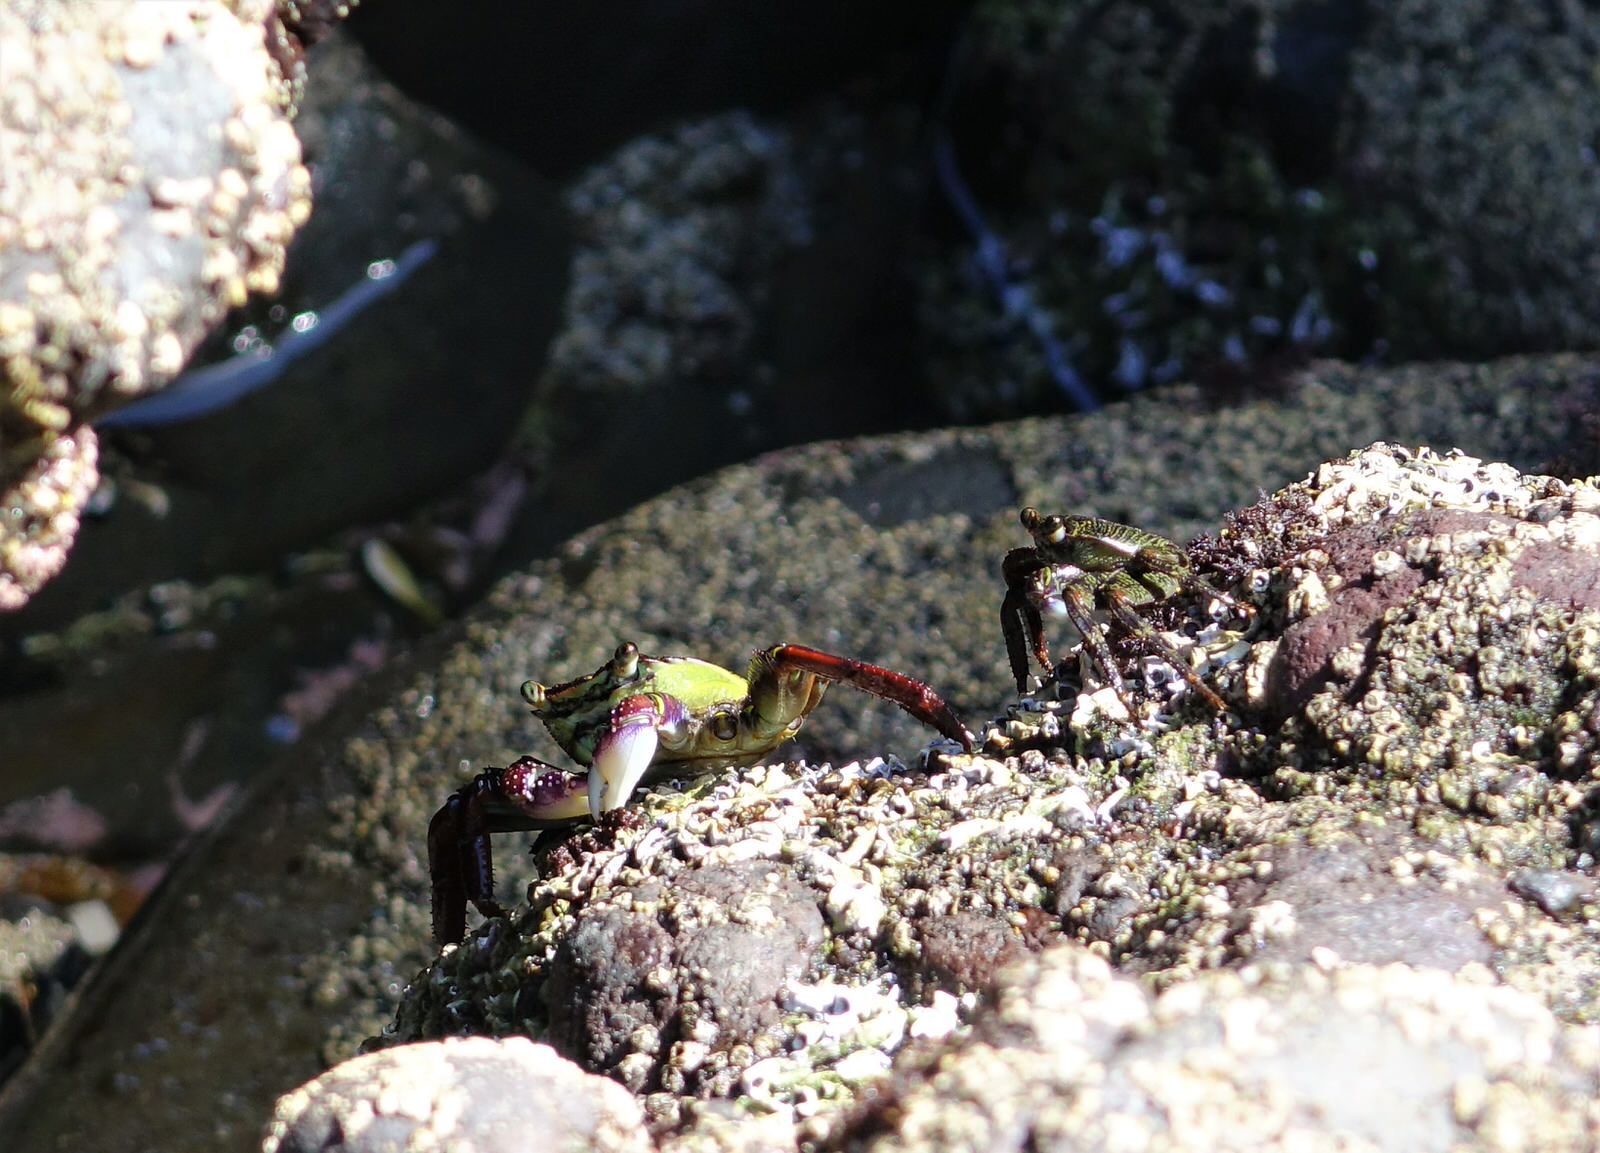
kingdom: Animalia
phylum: Arthropoda
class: Malacostraca
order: Decapoda
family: Grapsidae
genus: Leptograpsus
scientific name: Leptograpsus variegatus
